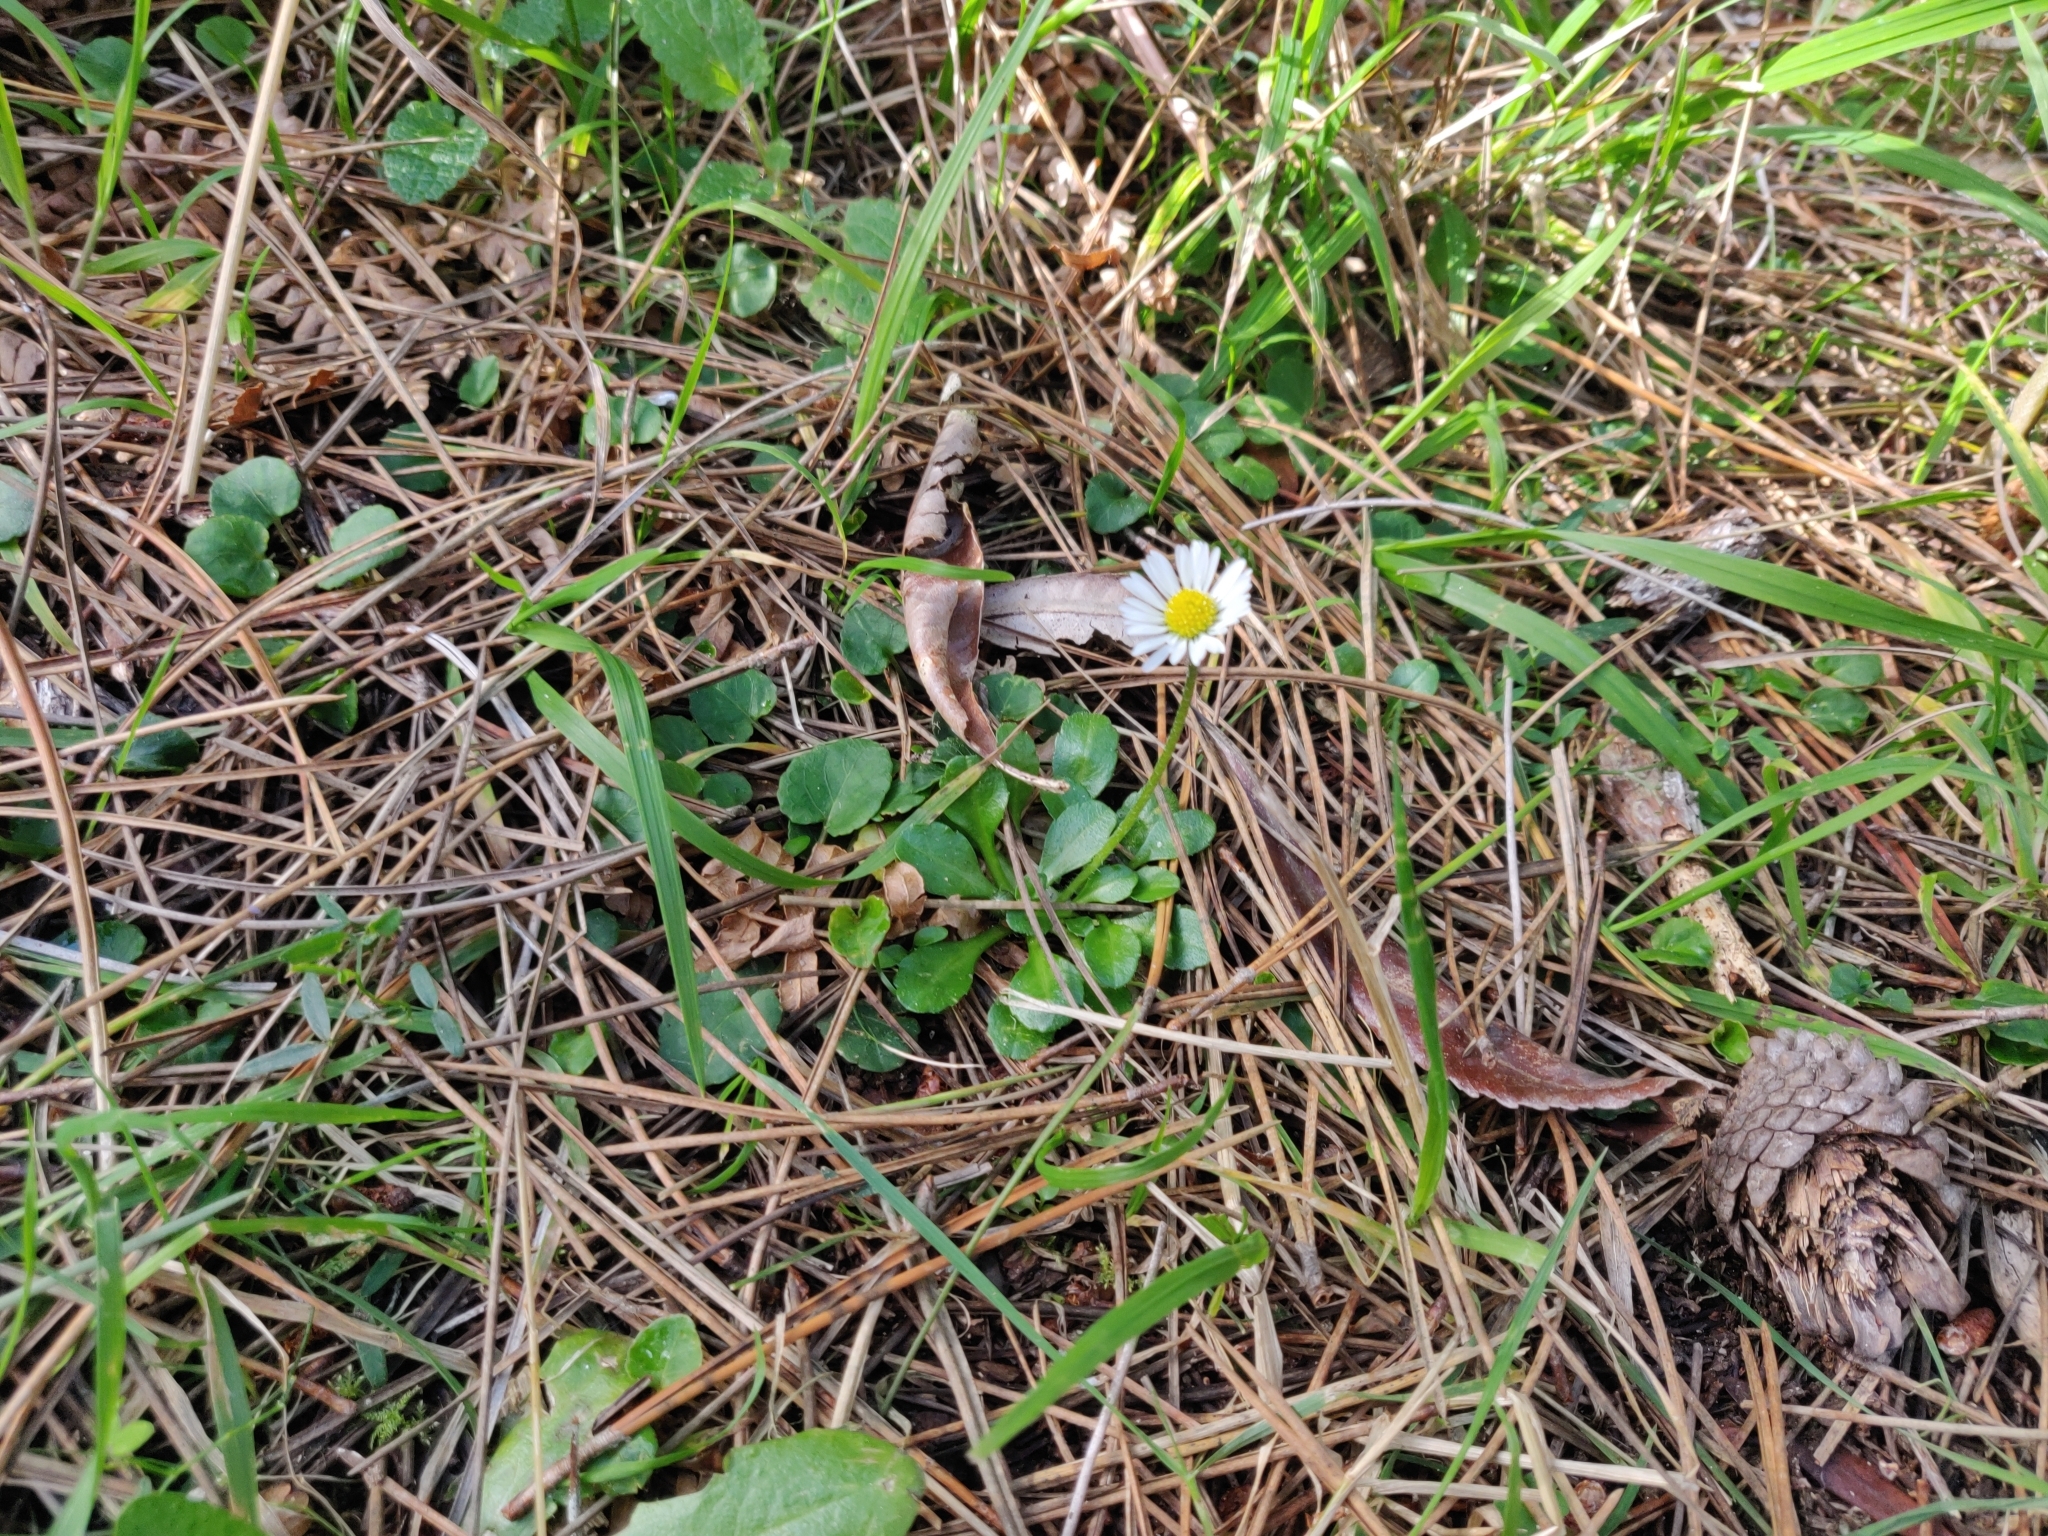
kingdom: Plantae
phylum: Tracheophyta
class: Magnoliopsida
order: Asterales
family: Asteraceae
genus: Bellis
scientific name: Bellis perennis
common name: Lawndaisy
